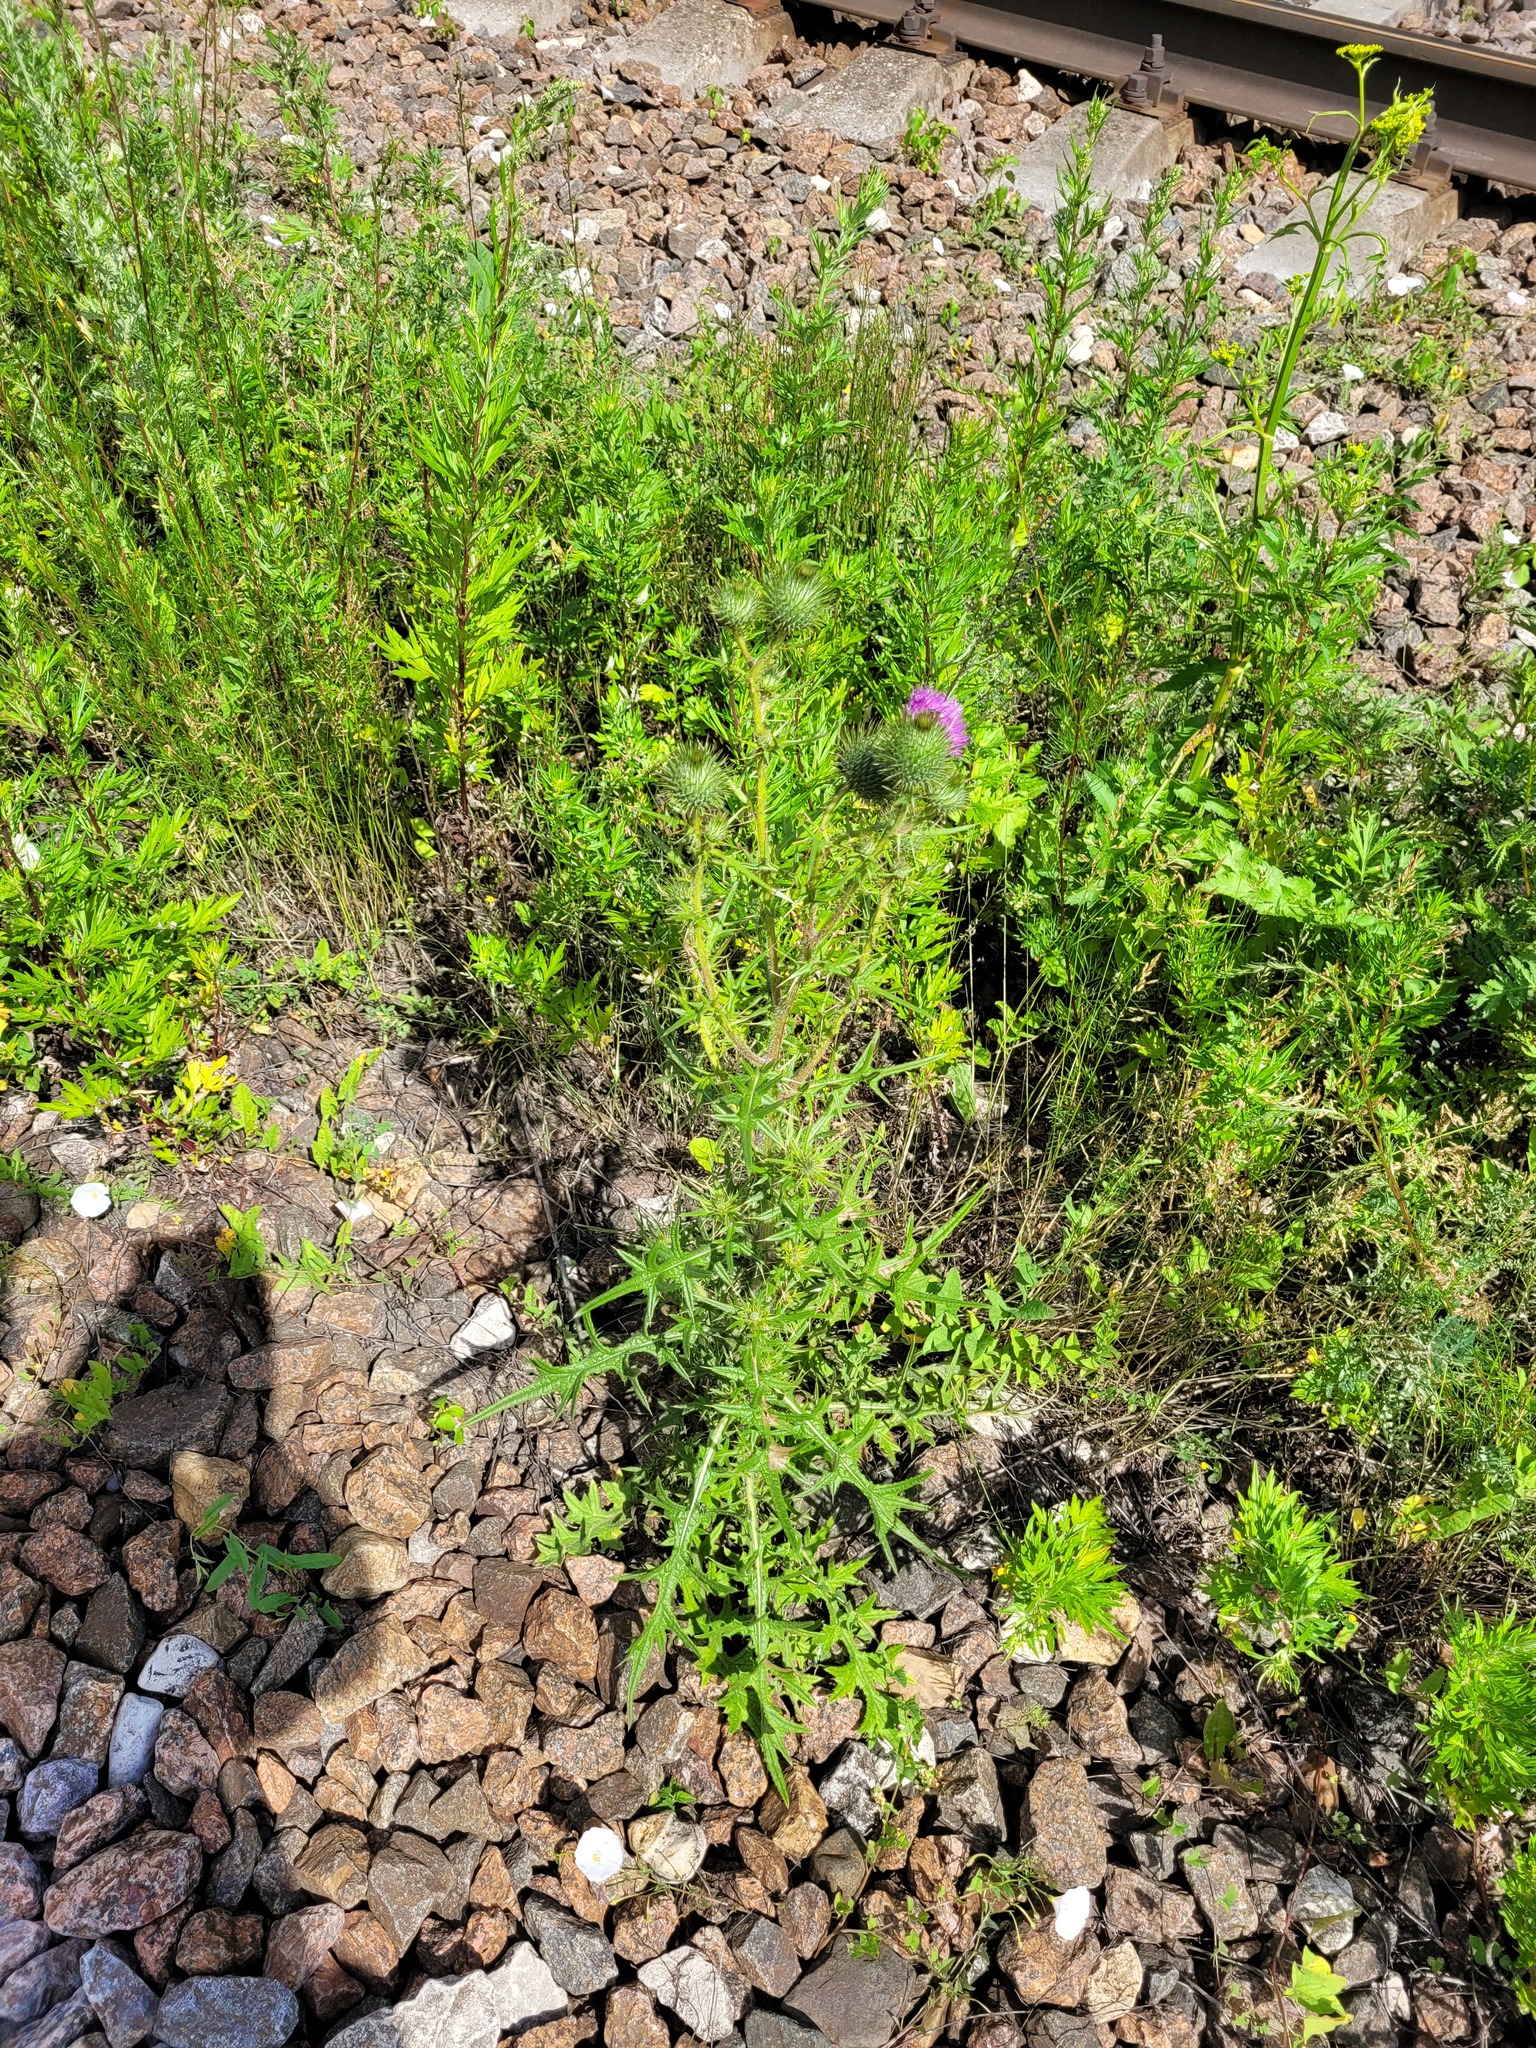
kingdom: Plantae
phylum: Tracheophyta
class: Magnoliopsida
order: Asterales
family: Asteraceae
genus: Cirsium
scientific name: Cirsium vulgare
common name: Bull thistle
